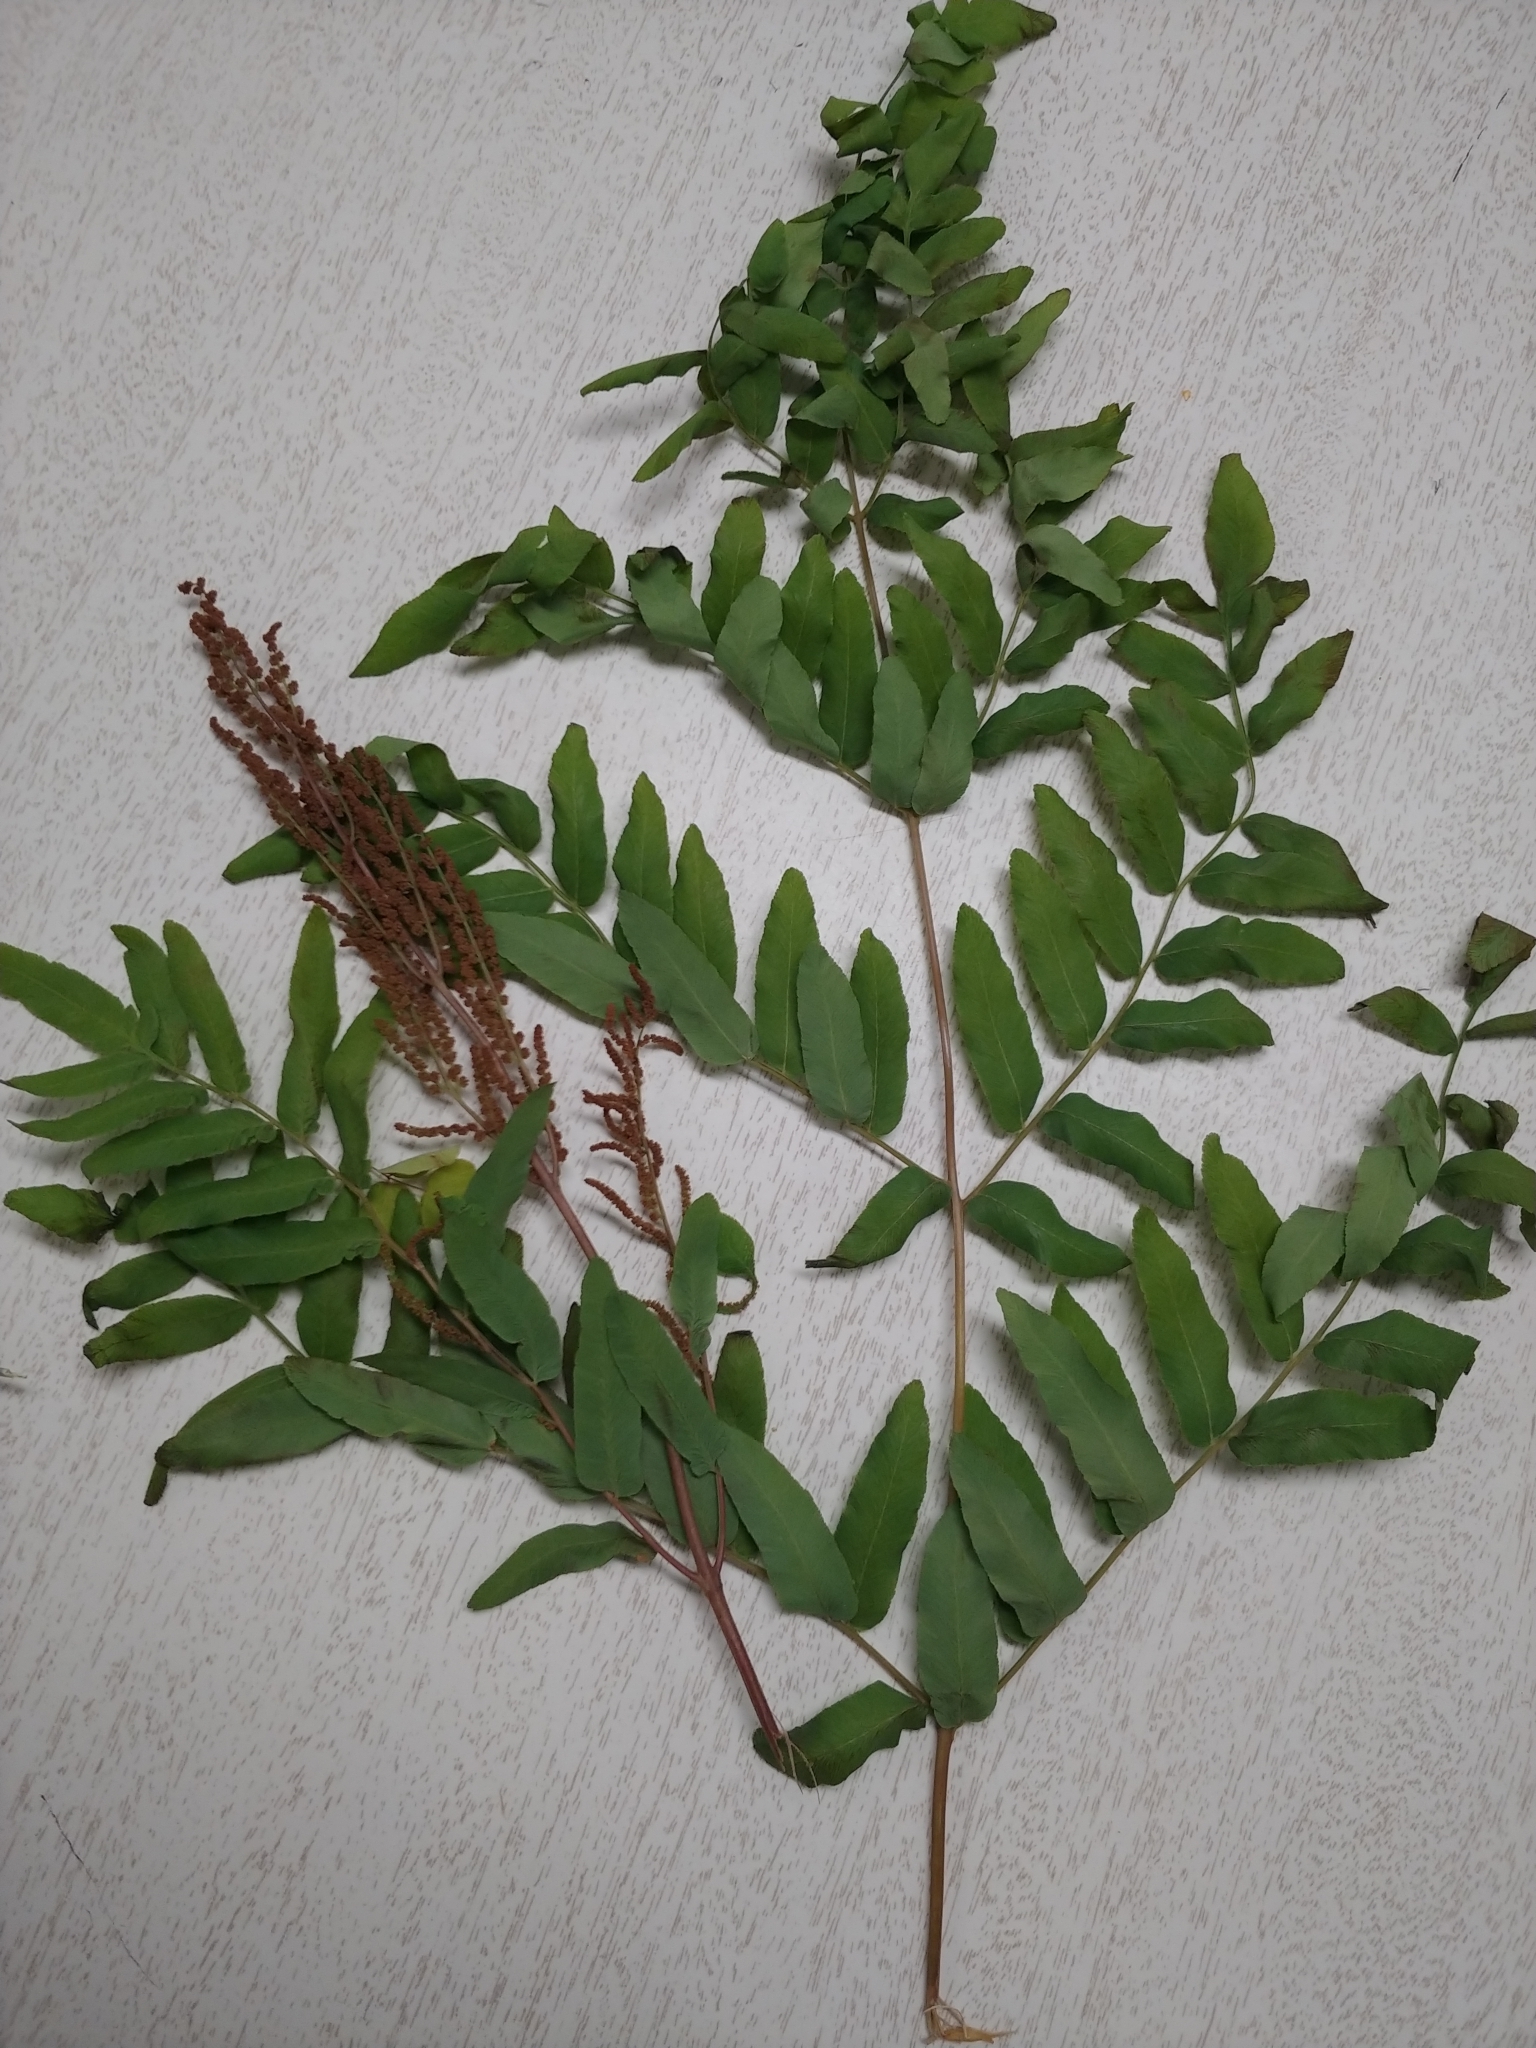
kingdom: Plantae
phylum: Tracheophyta
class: Polypodiopsida
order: Osmundales
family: Osmundaceae
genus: Osmunda
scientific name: Osmunda spectabilis
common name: American royal fern
